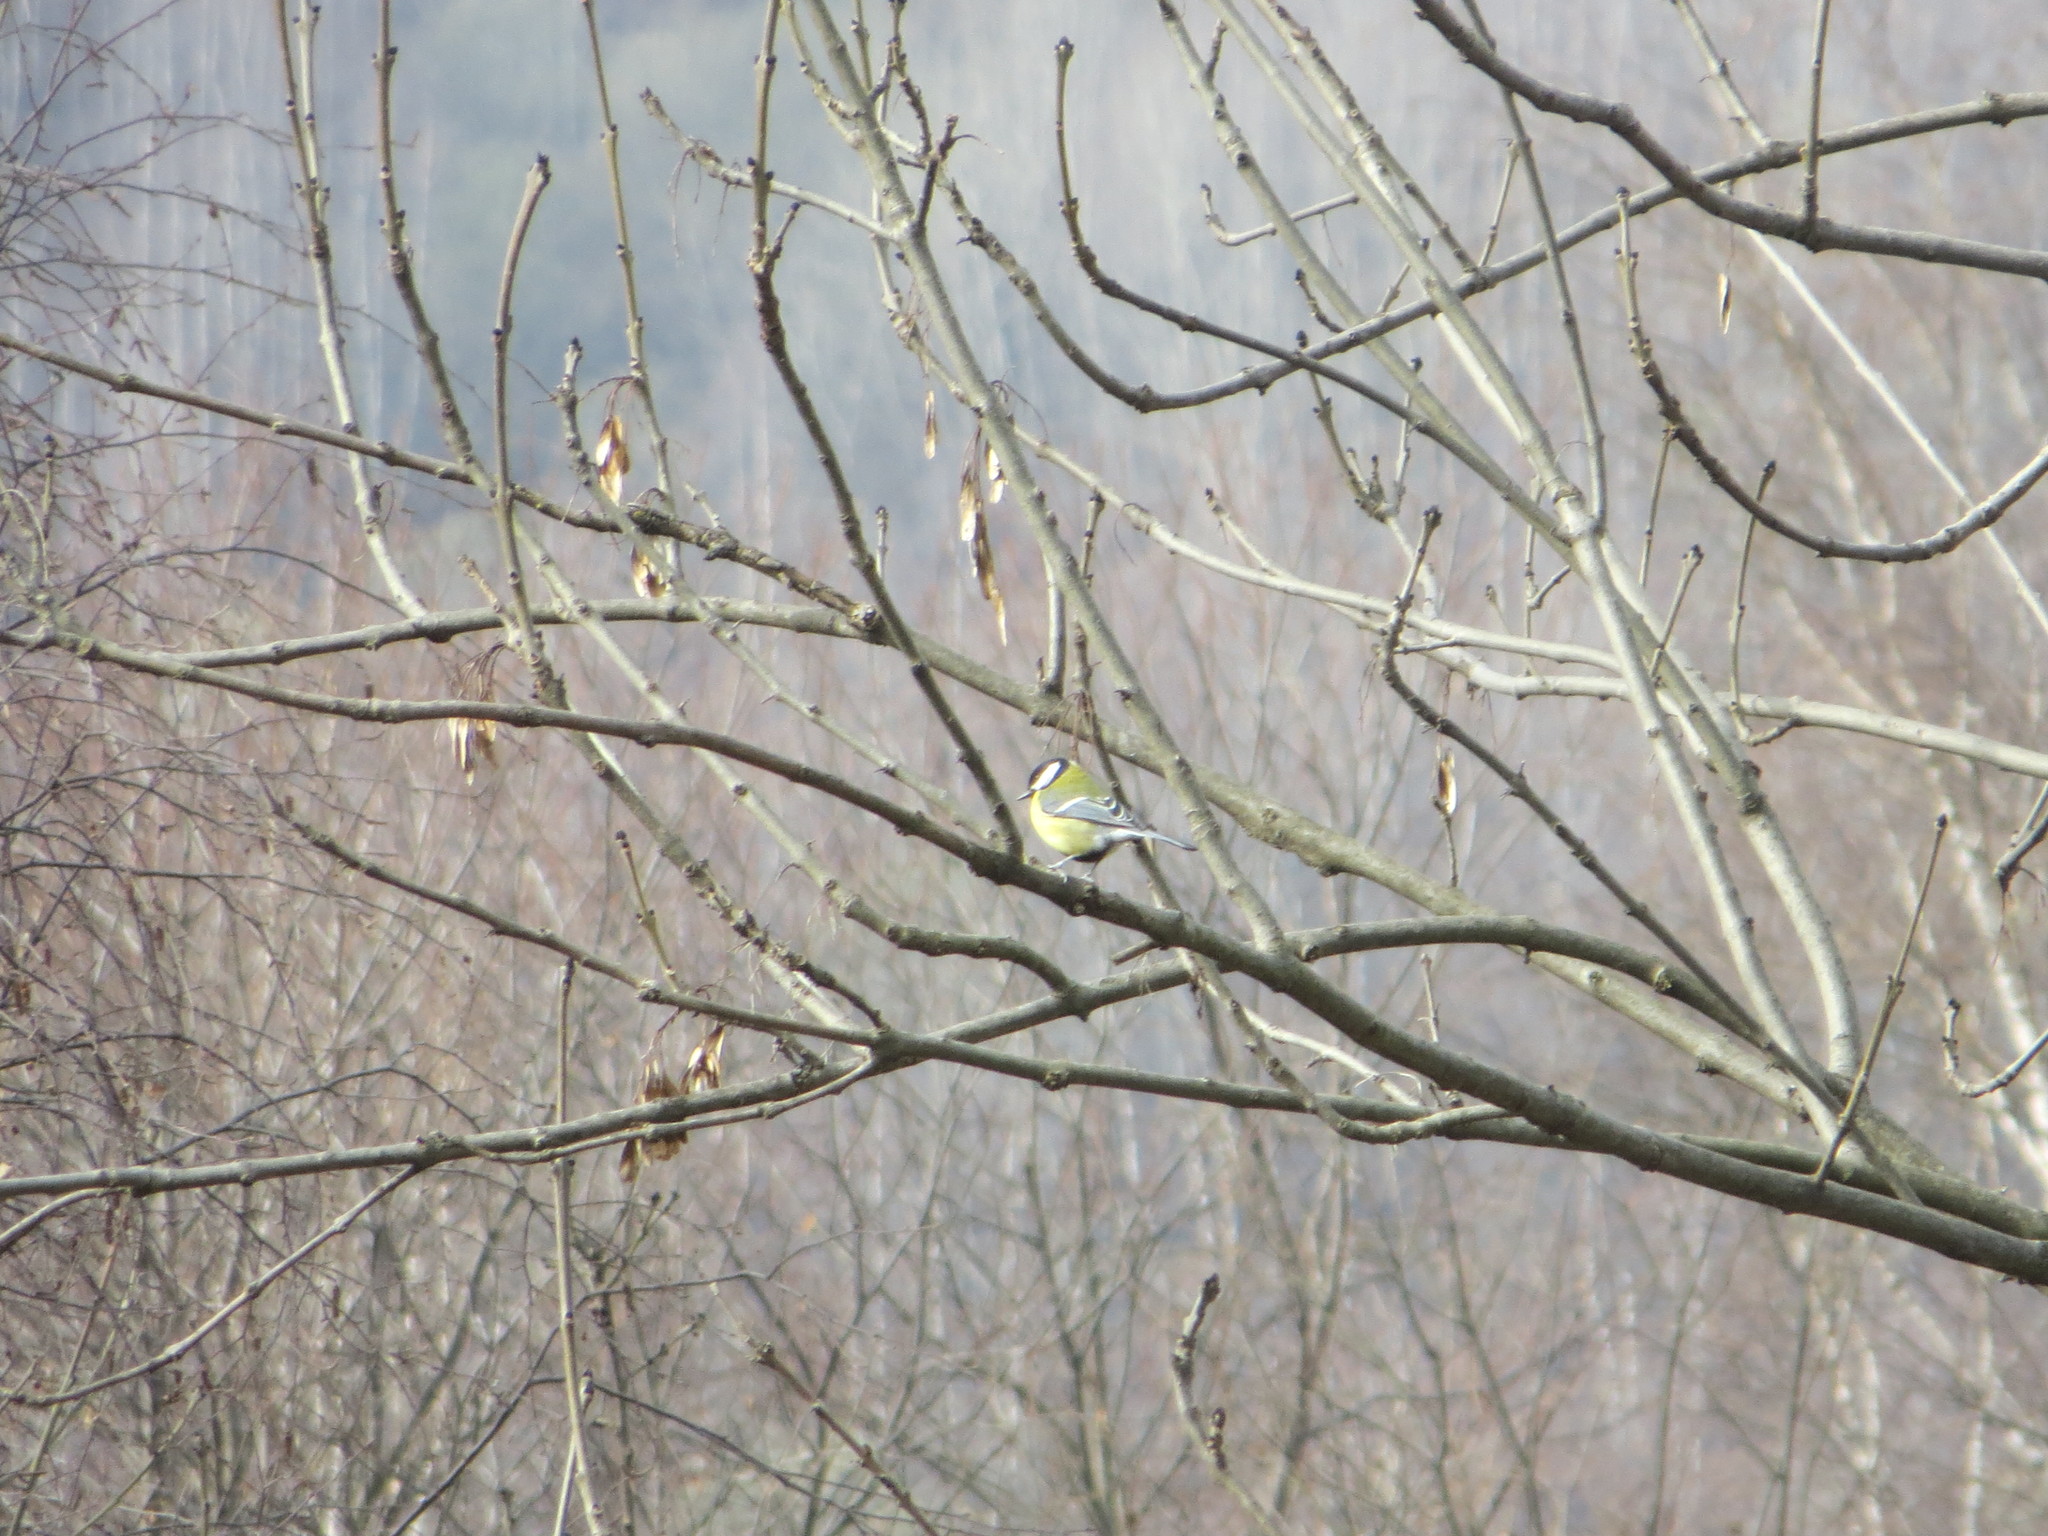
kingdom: Animalia
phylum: Chordata
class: Aves
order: Passeriformes
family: Paridae
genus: Parus
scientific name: Parus major
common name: Great tit
